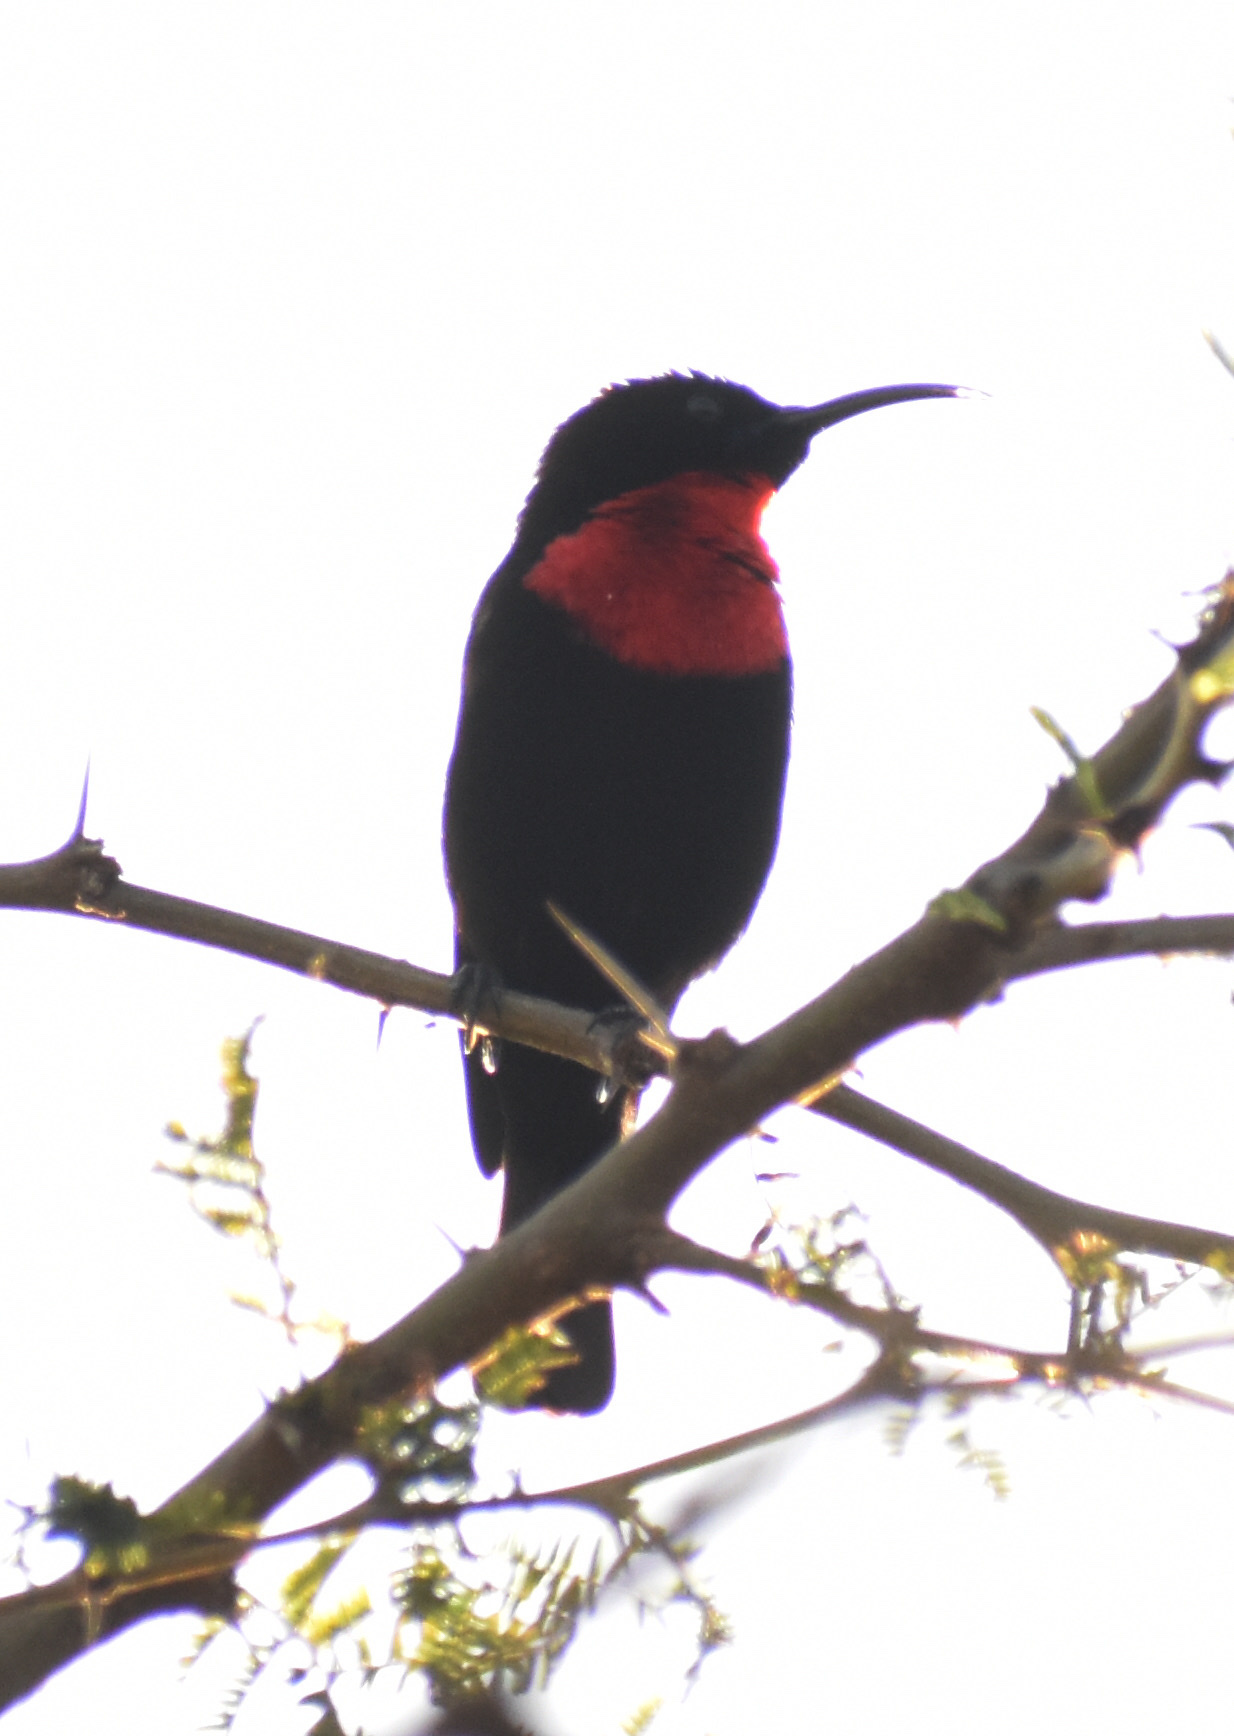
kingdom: Animalia
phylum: Chordata
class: Aves
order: Passeriformes
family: Nectariniidae
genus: Chalcomitra
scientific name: Chalcomitra senegalensis
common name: Scarlet-chested sunbird
